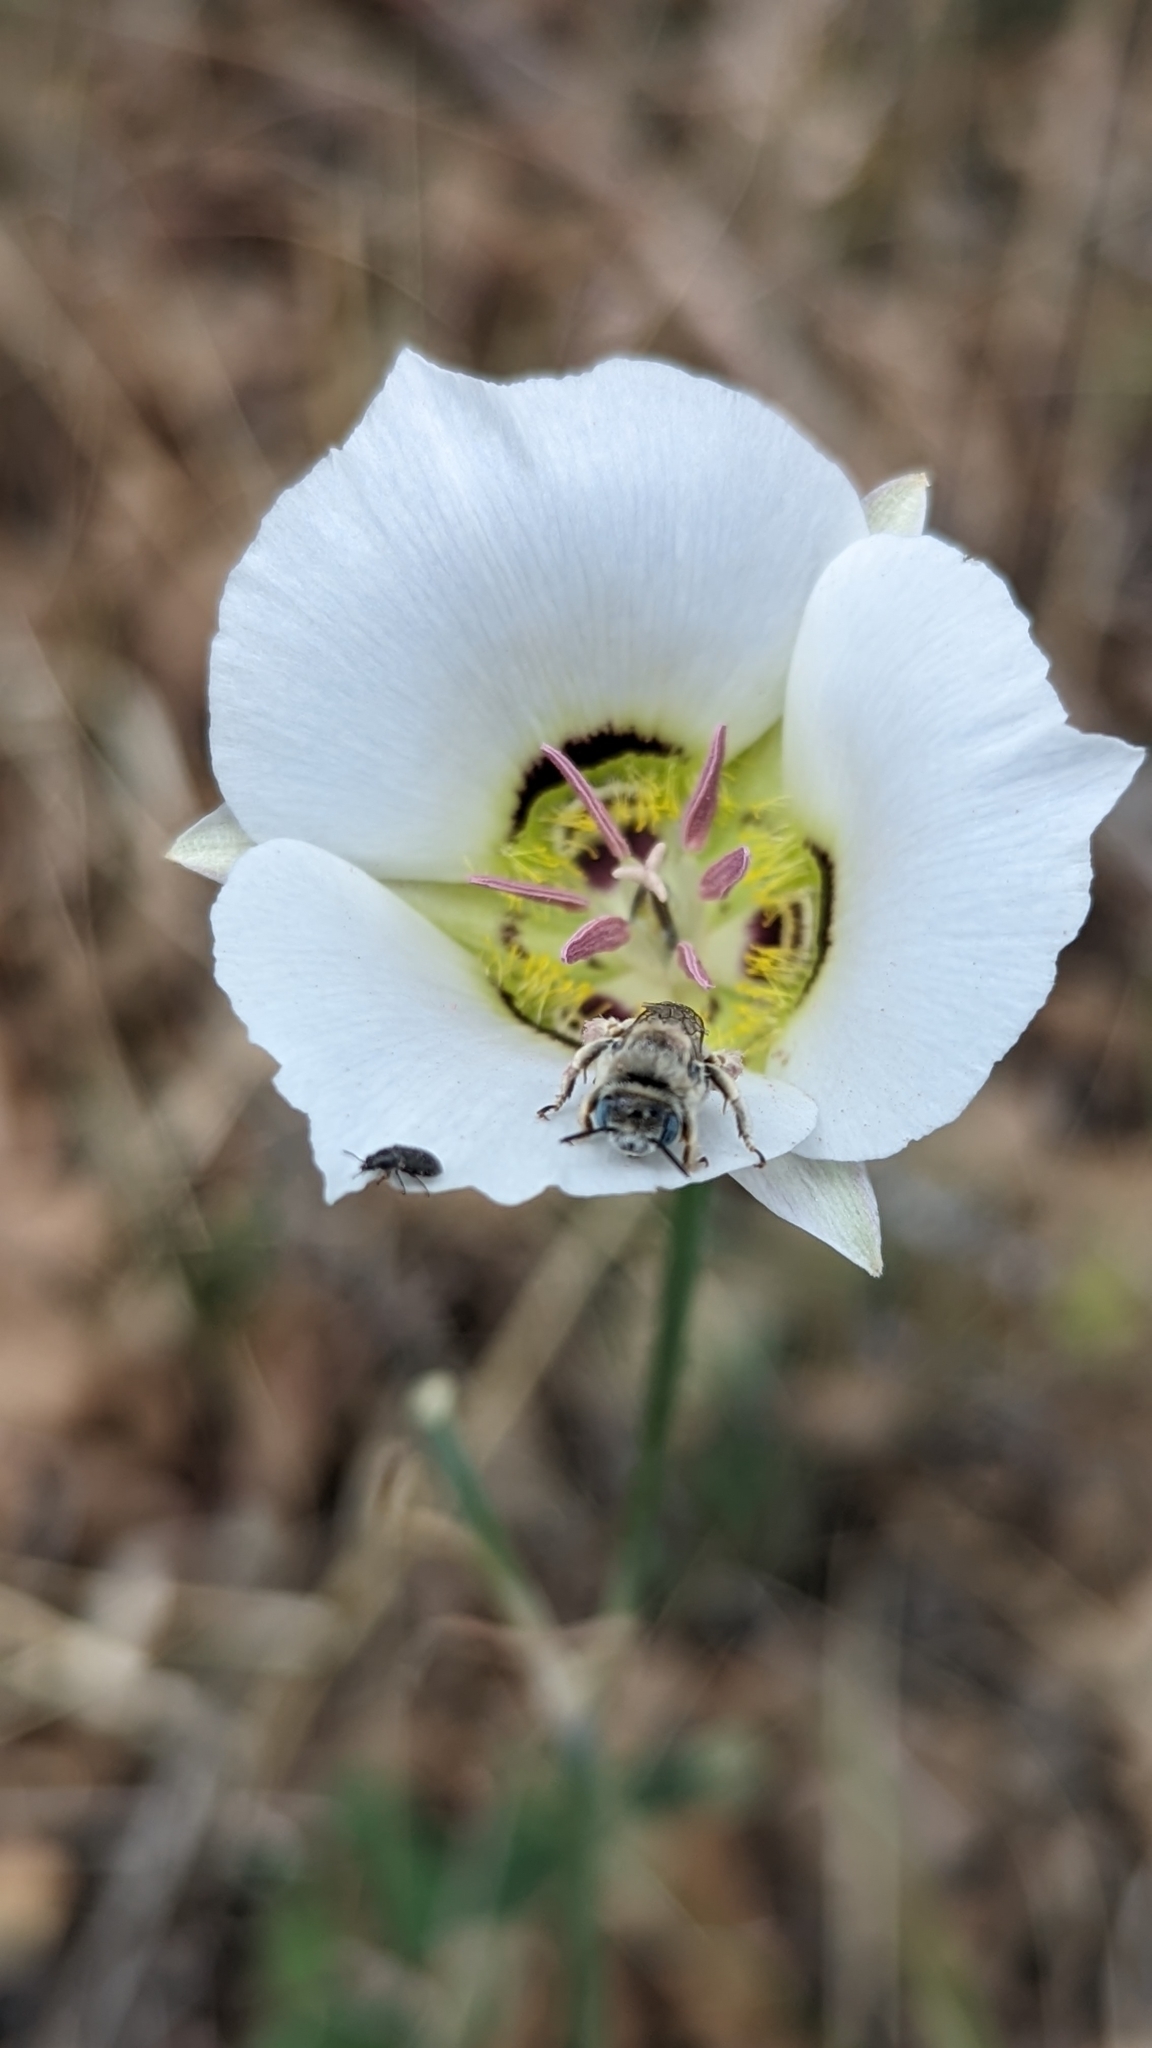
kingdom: Plantae
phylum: Tracheophyta
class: Liliopsida
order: Liliales
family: Liliaceae
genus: Calochortus
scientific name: Calochortus ambiguus
